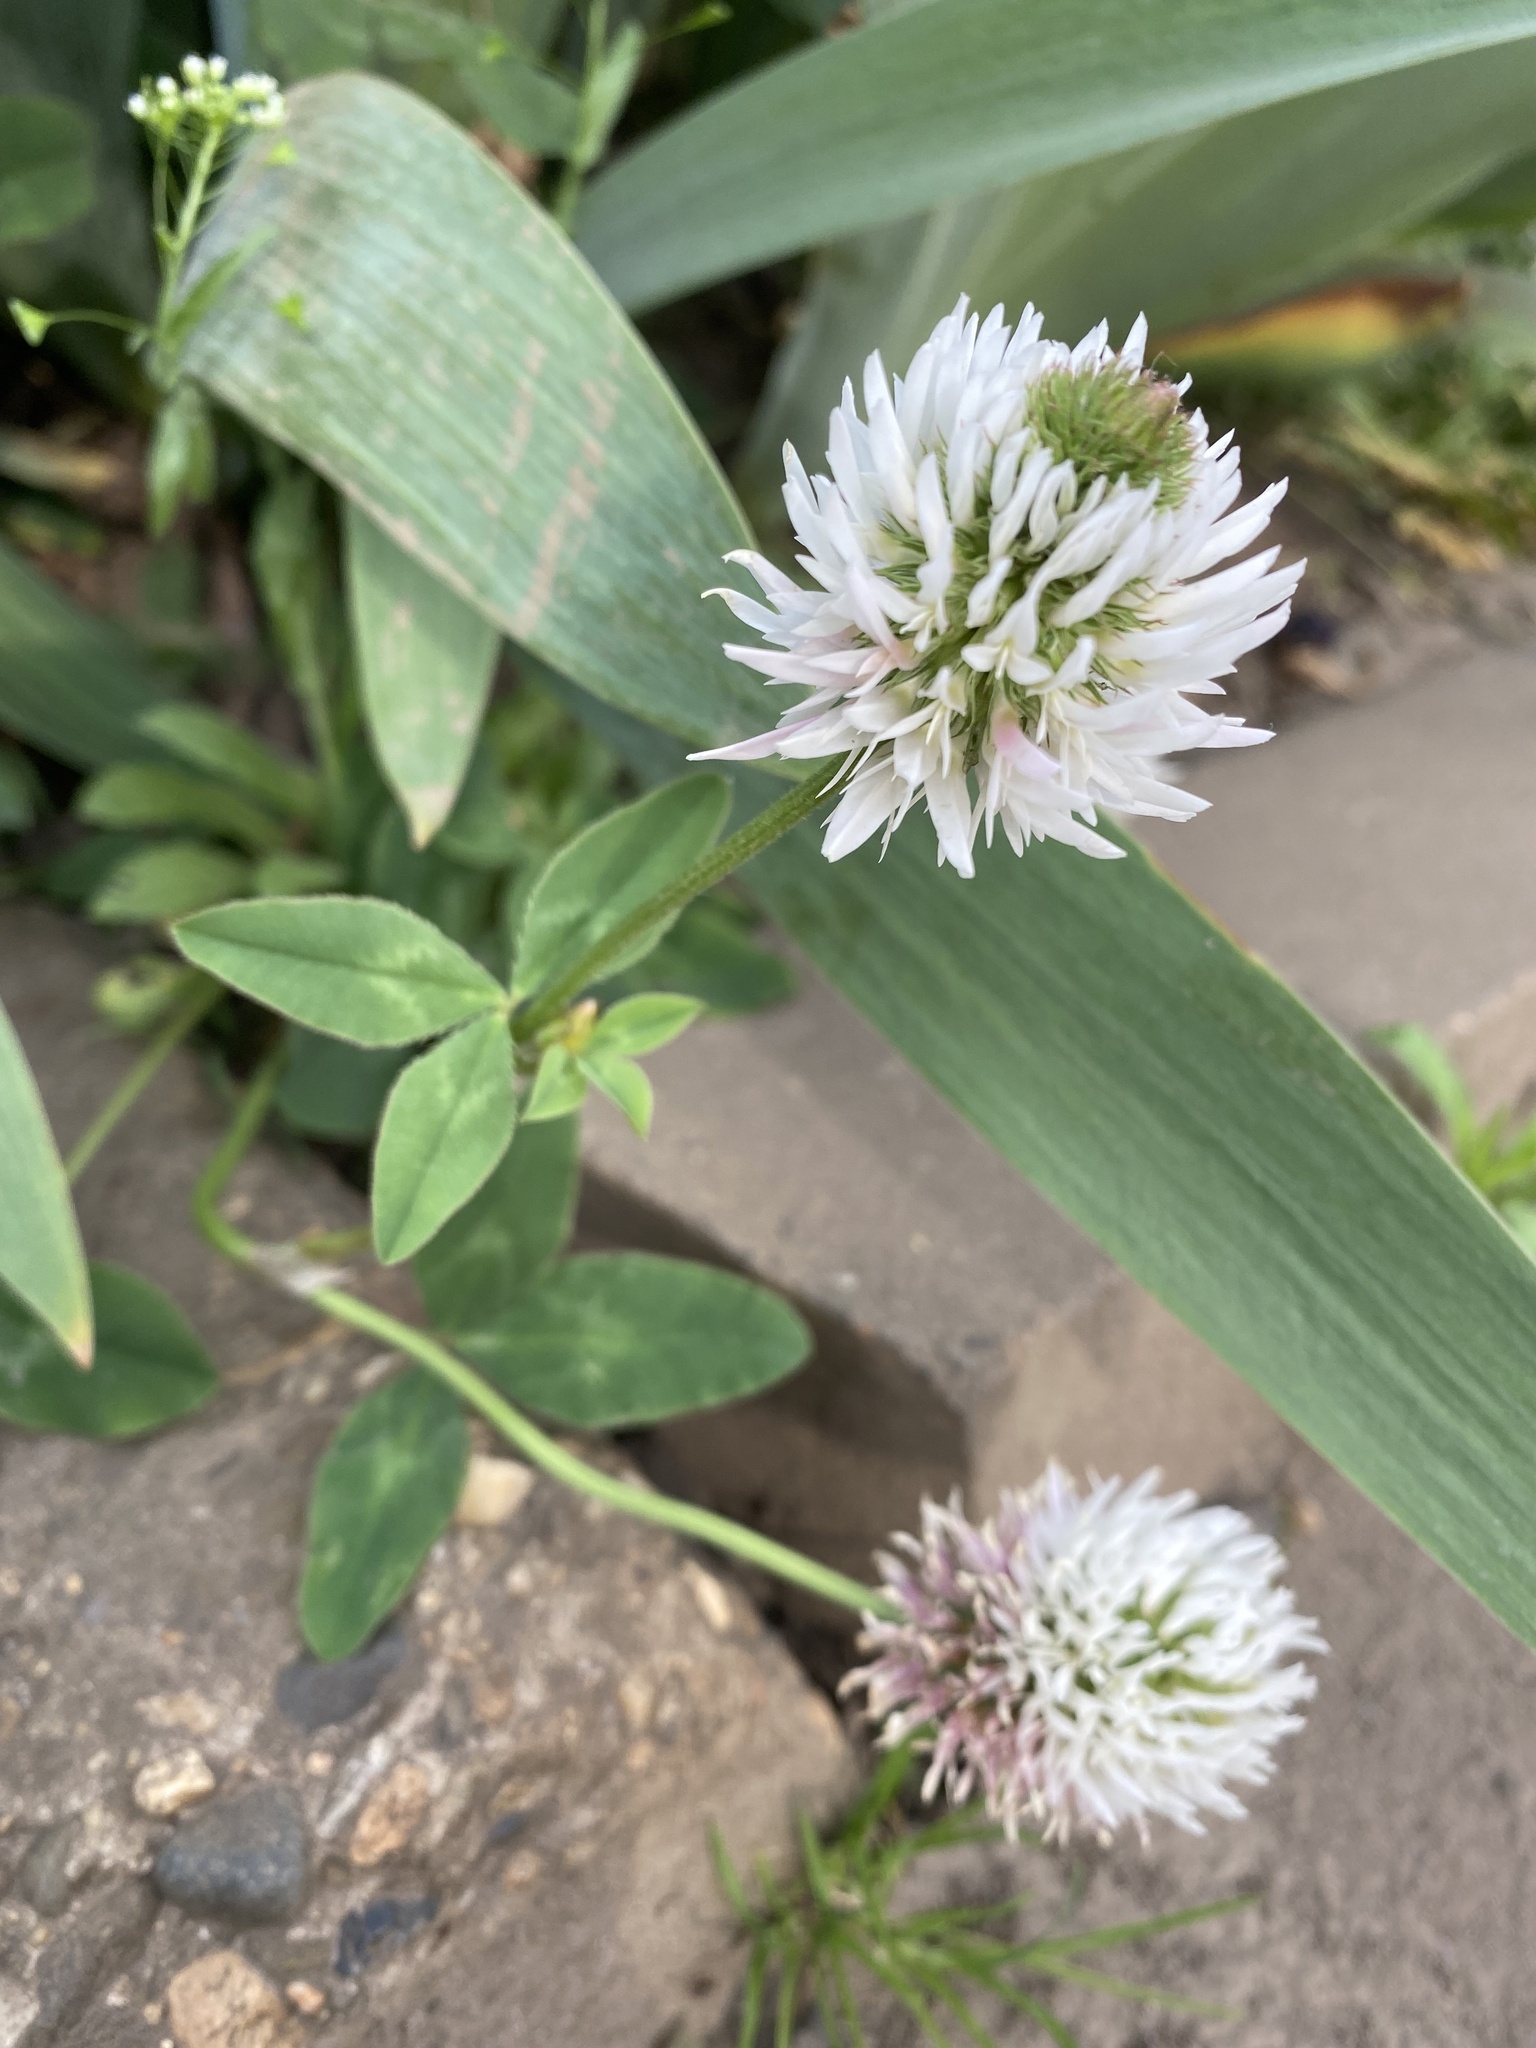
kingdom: Plantae
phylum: Tracheophyta
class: Magnoliopsida
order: Fabales
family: Fabaceae
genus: Trifolium
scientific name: Trifolium ambiguum
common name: Kura clover
